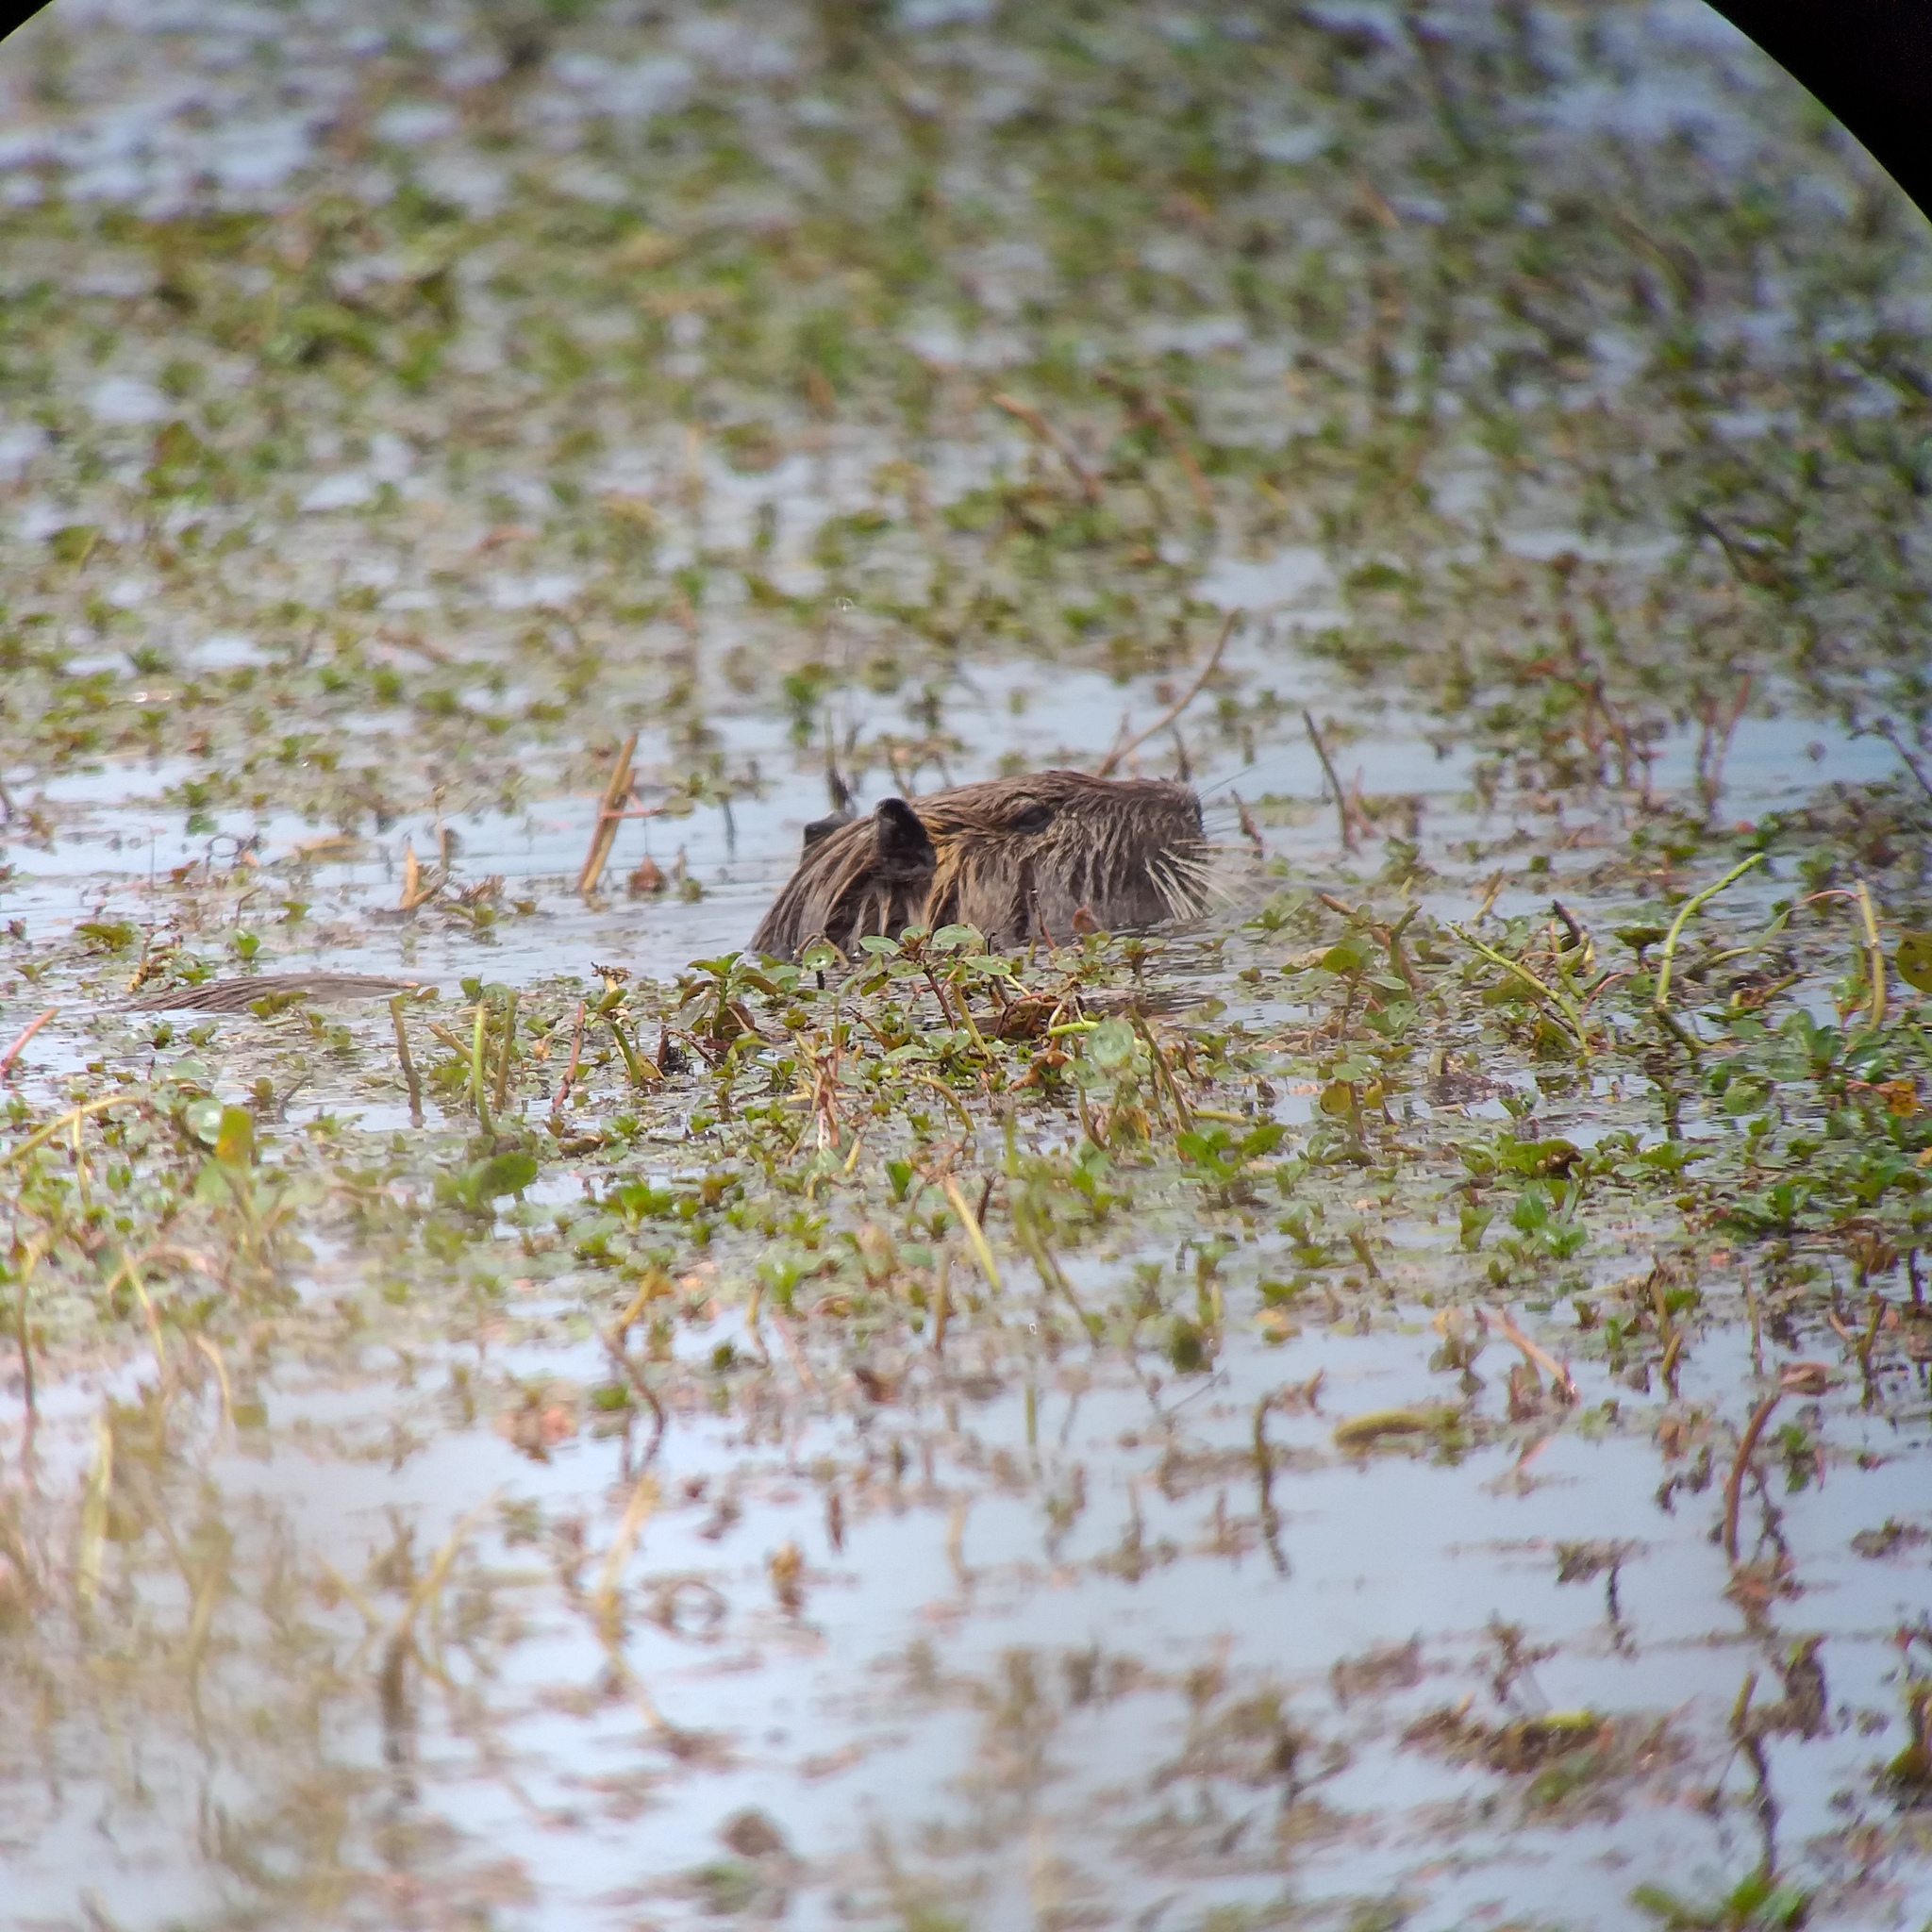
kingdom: Animalia
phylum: Chordata
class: Mammalia
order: Rodentia
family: Myocastoridae
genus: Myocastor
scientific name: Myocastor coypus
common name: Coypu
